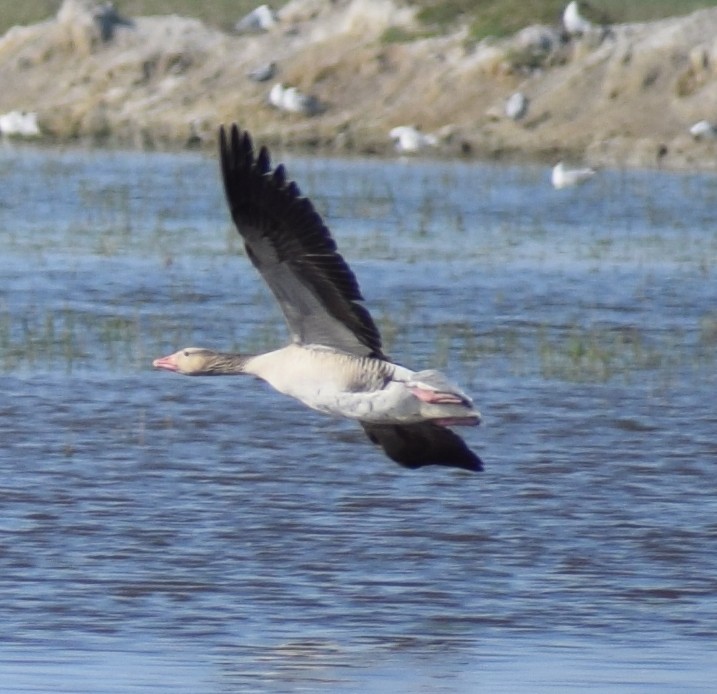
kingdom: Animalia
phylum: Chordata
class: Aves
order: Anseriformes
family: Anatidae
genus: Anser
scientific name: Anser anser
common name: Greylag goose
